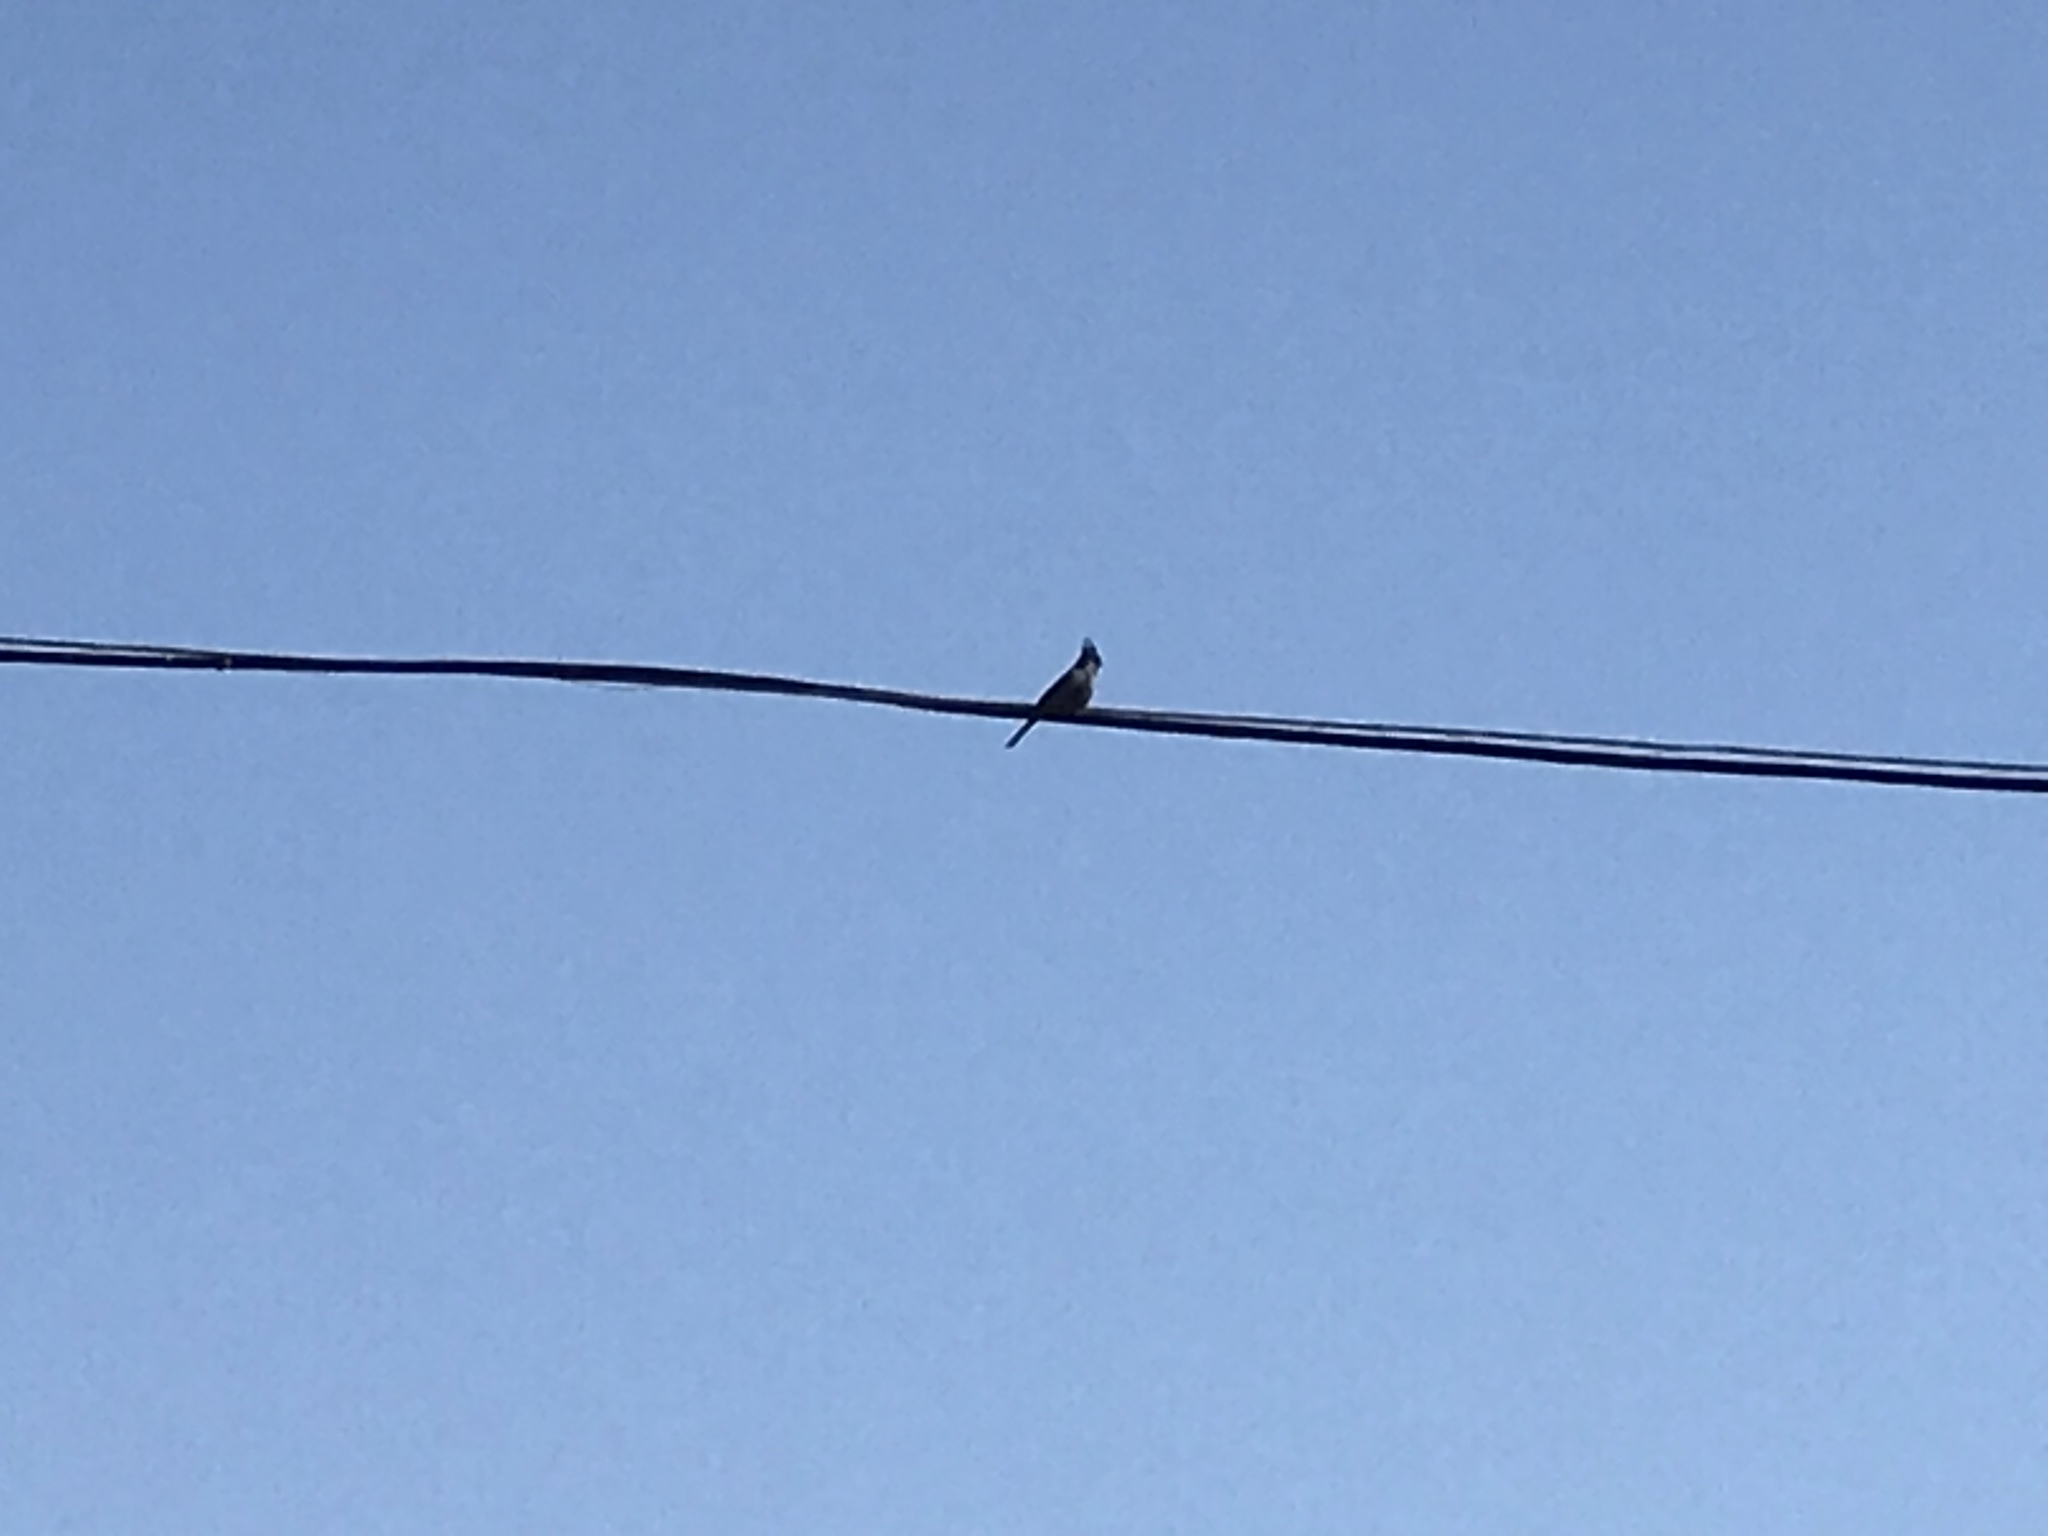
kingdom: Animalia
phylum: Chordata
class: Aves
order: Passeriformes
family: Ptilogonatidae
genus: Phainopepla
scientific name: Phainopepla nitens
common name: Phainopepla
